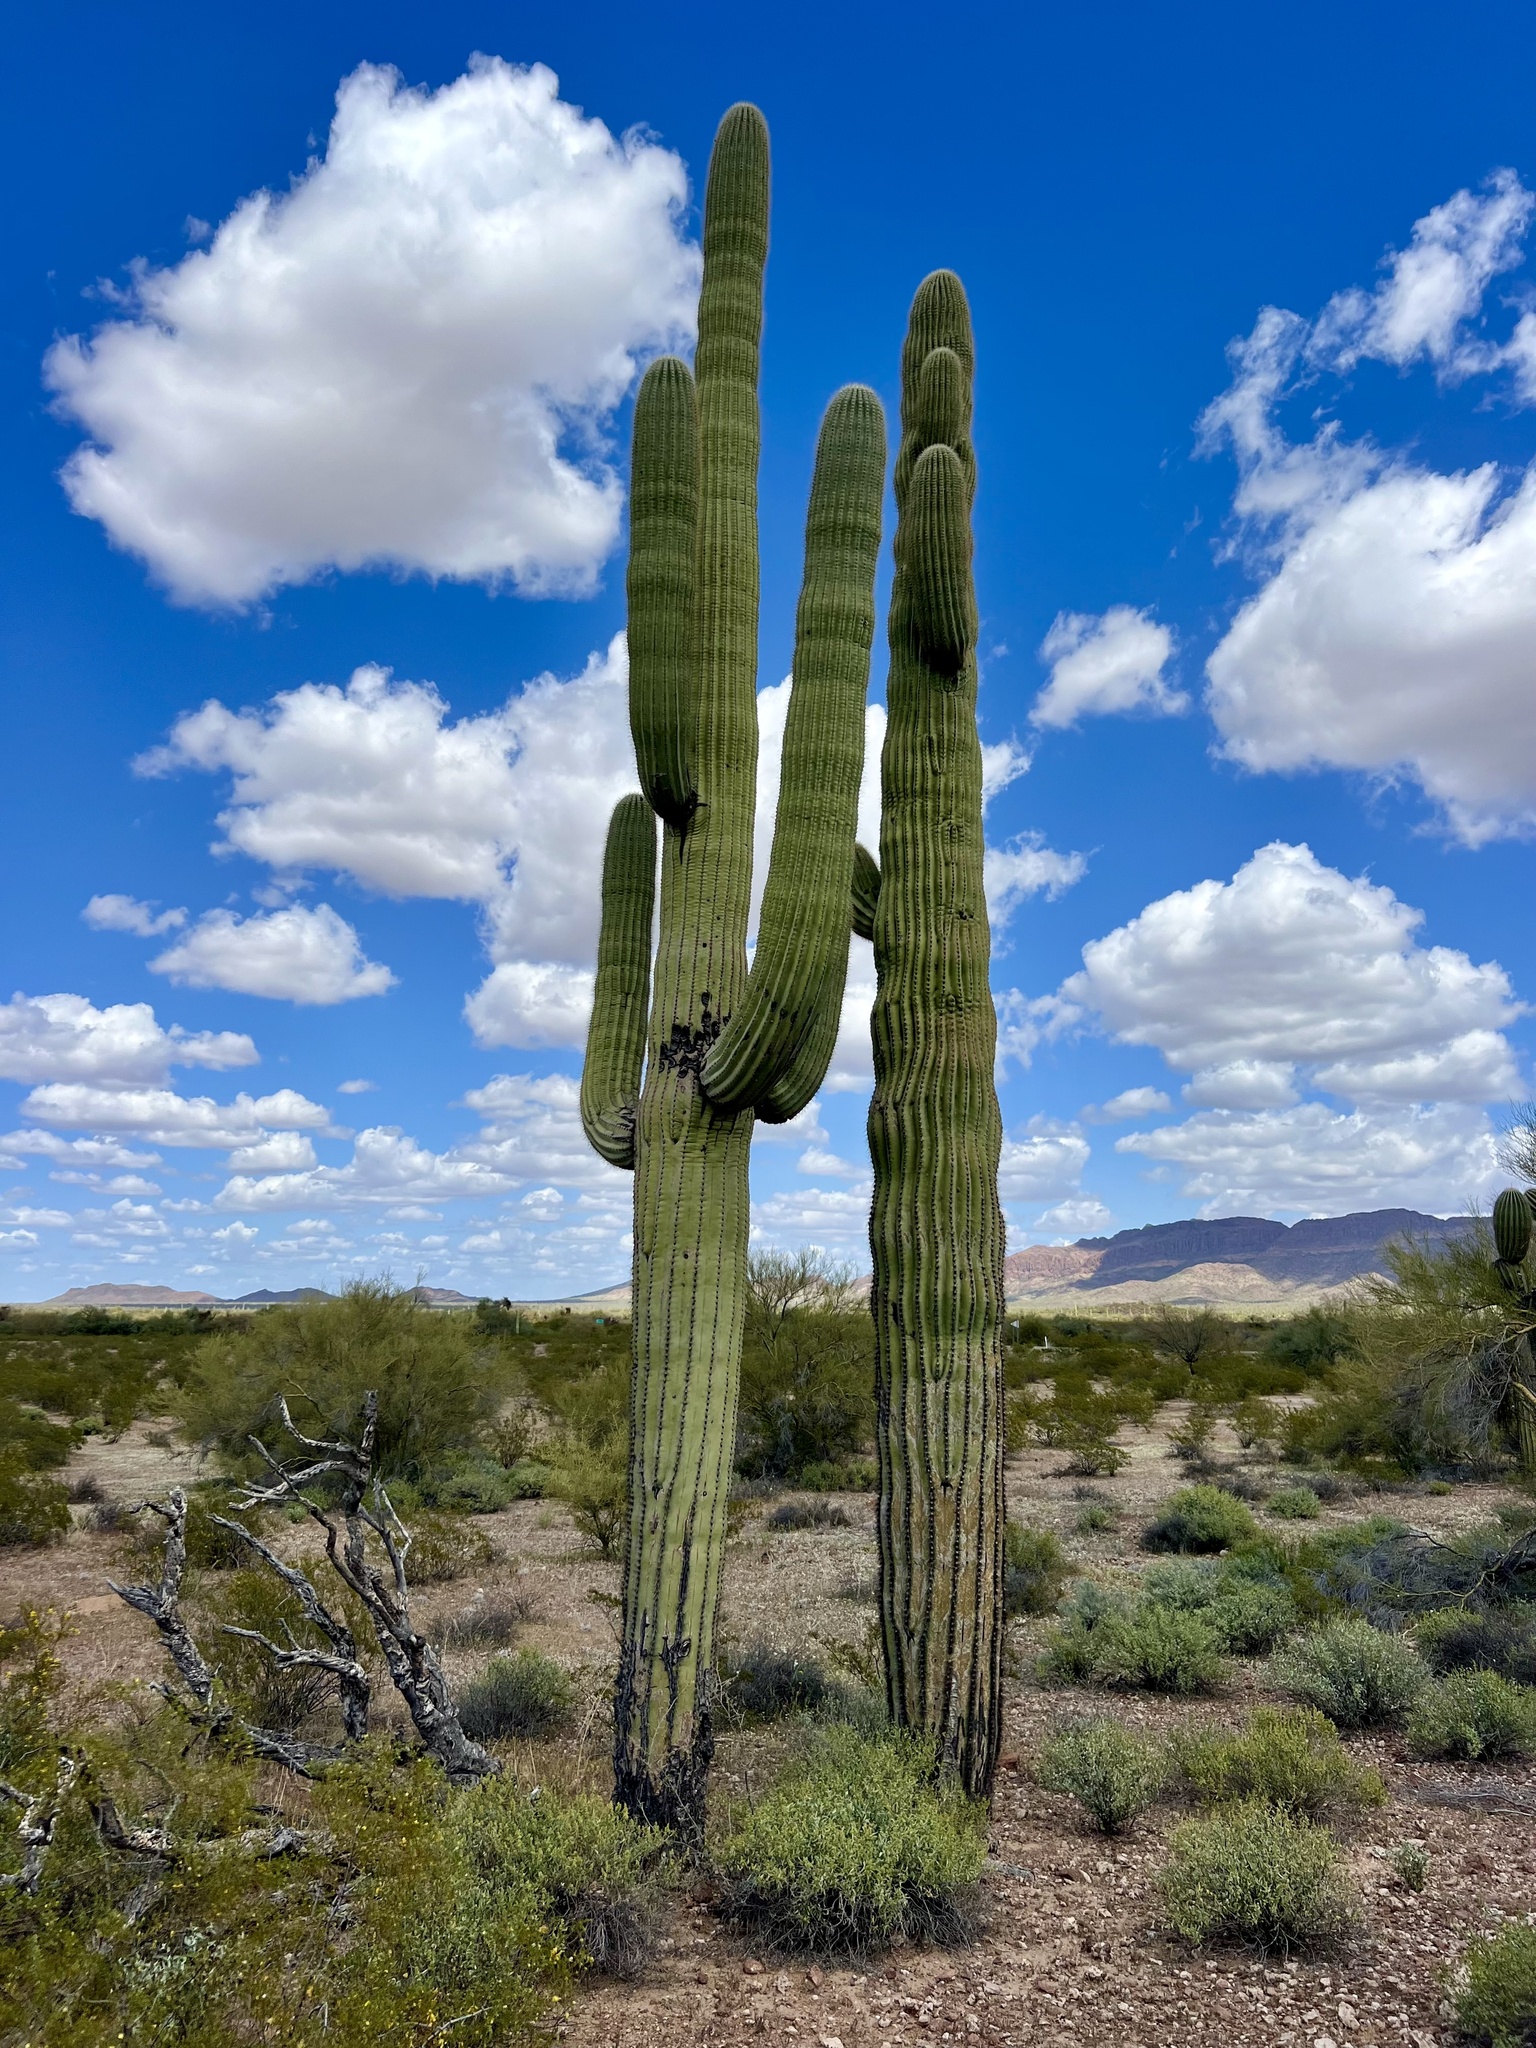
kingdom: Plantae
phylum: Tracheophyta
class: Magnoliopsida
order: Caryophyllales
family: Cactaceae
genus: Carnegiea
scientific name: Carnegiea gigantea
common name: Saguaro
